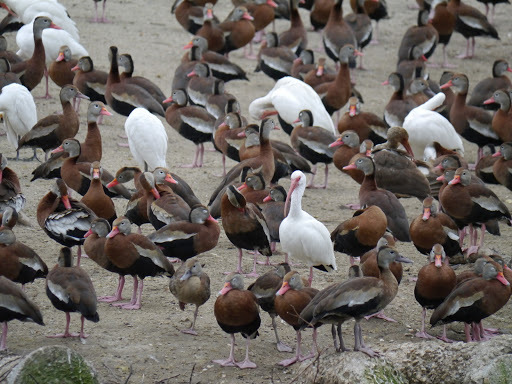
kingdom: Animalia
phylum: Chordata
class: Aves
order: Pelecaniformes
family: Threskiornithidae
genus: Eudocimus
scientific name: Eudocimus albus
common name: White ibis
